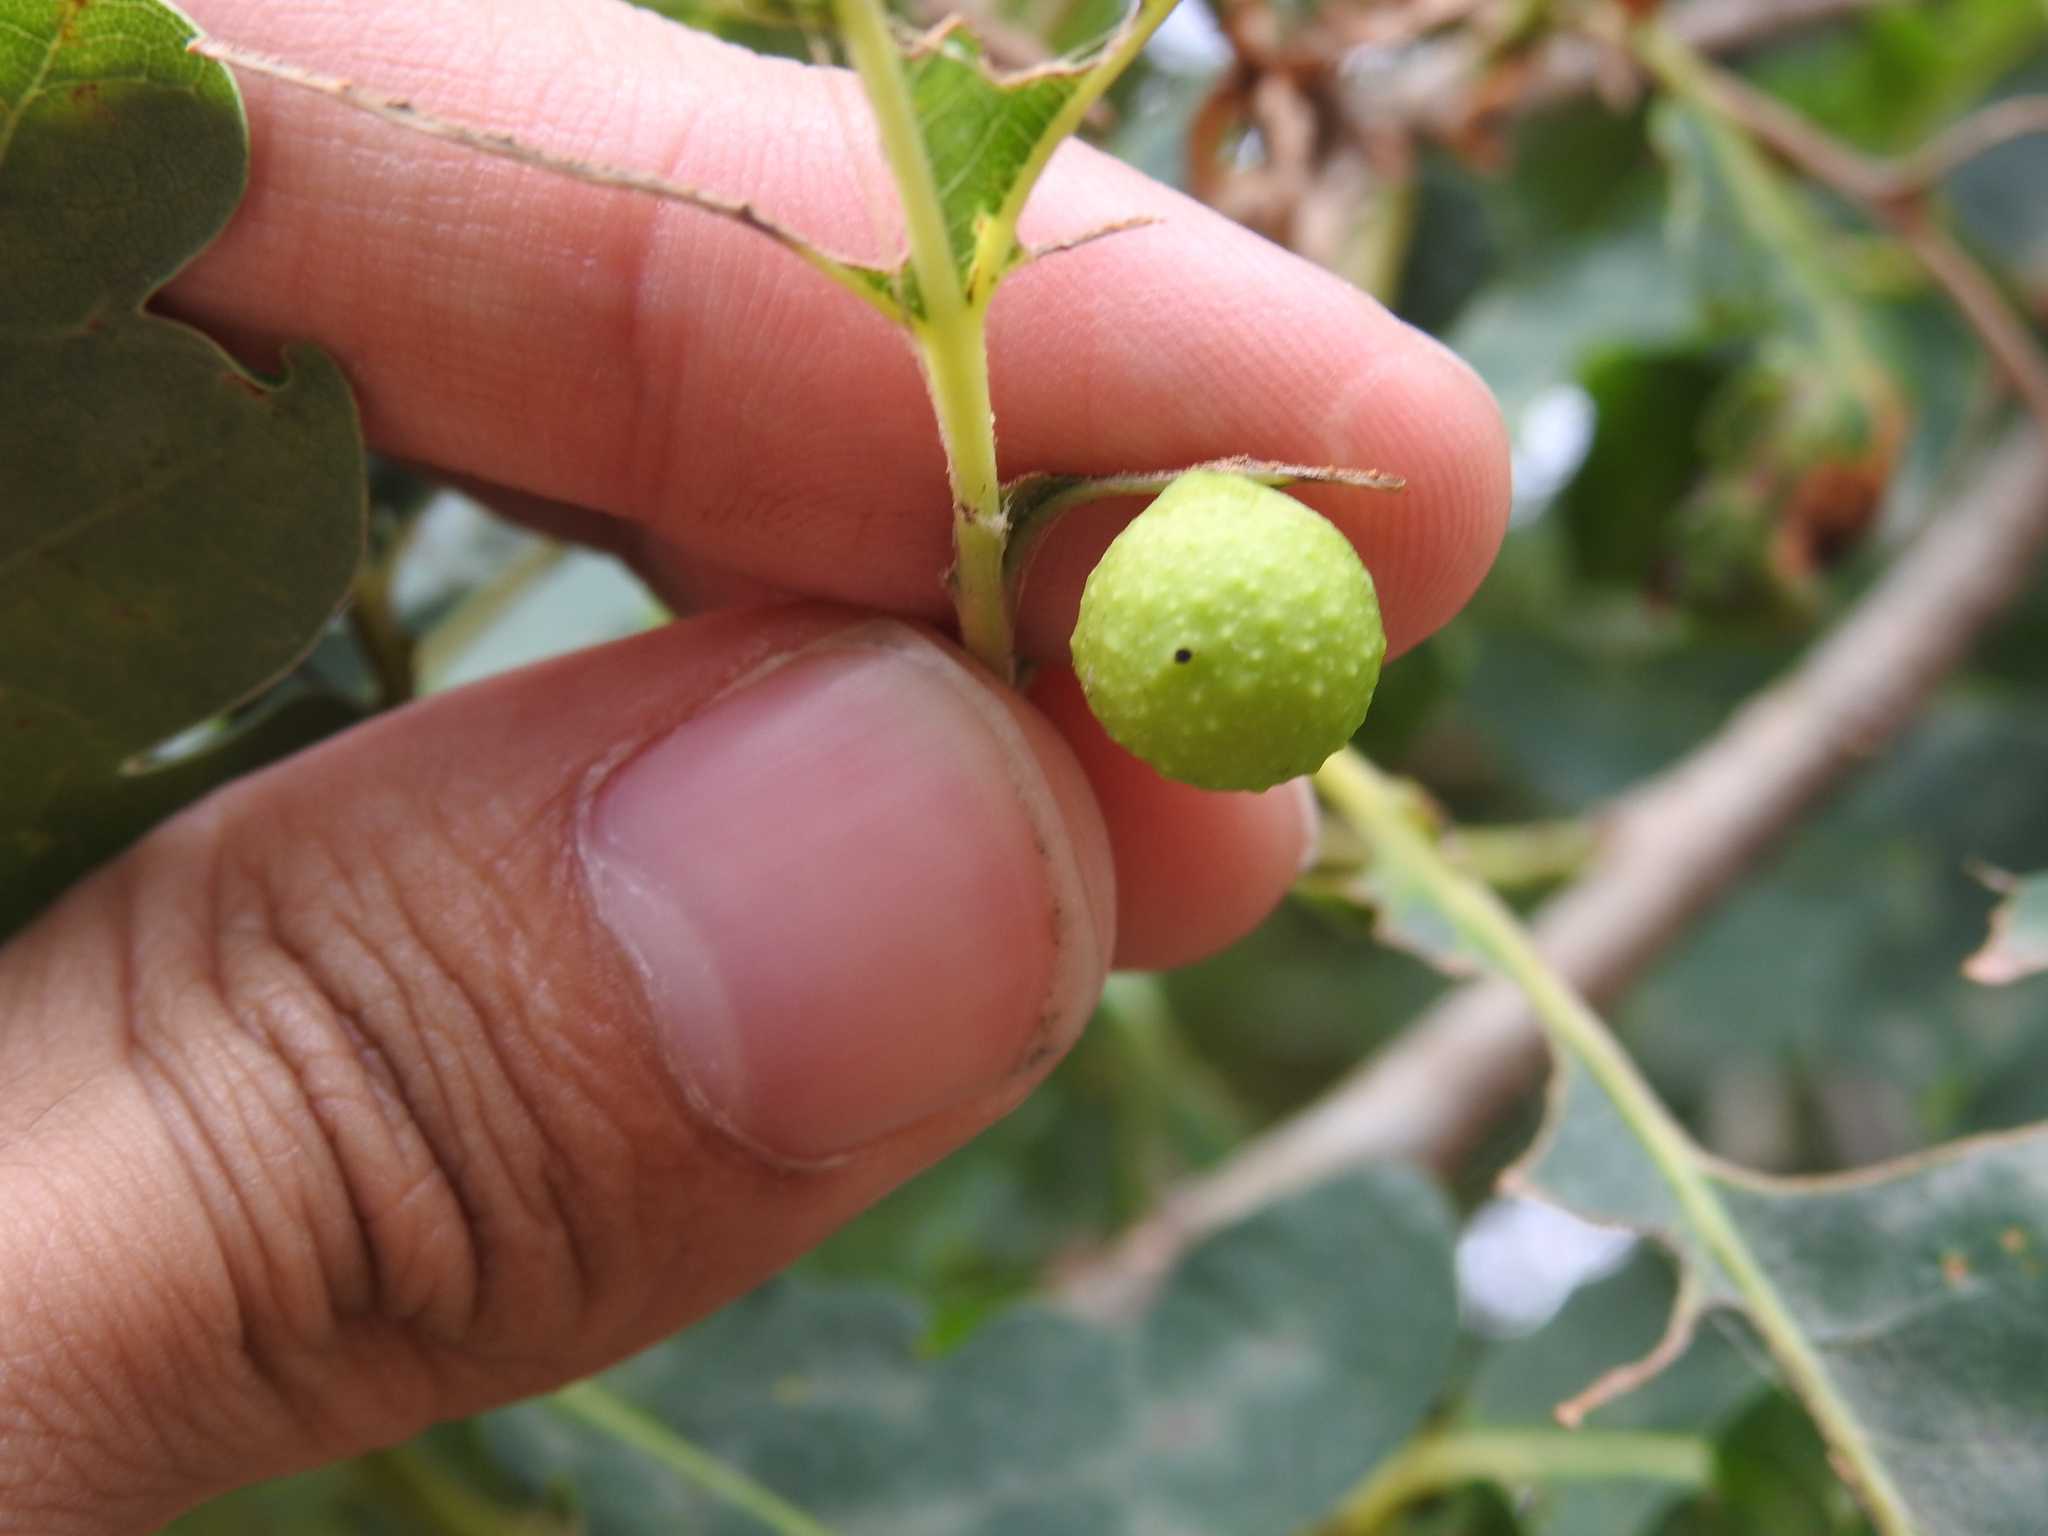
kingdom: Animalia
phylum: Arthropoda
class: Insecta
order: Hymenoptera
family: Cynipidae
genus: Cynips
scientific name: Cynips quercusfolii
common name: Cherry gall
